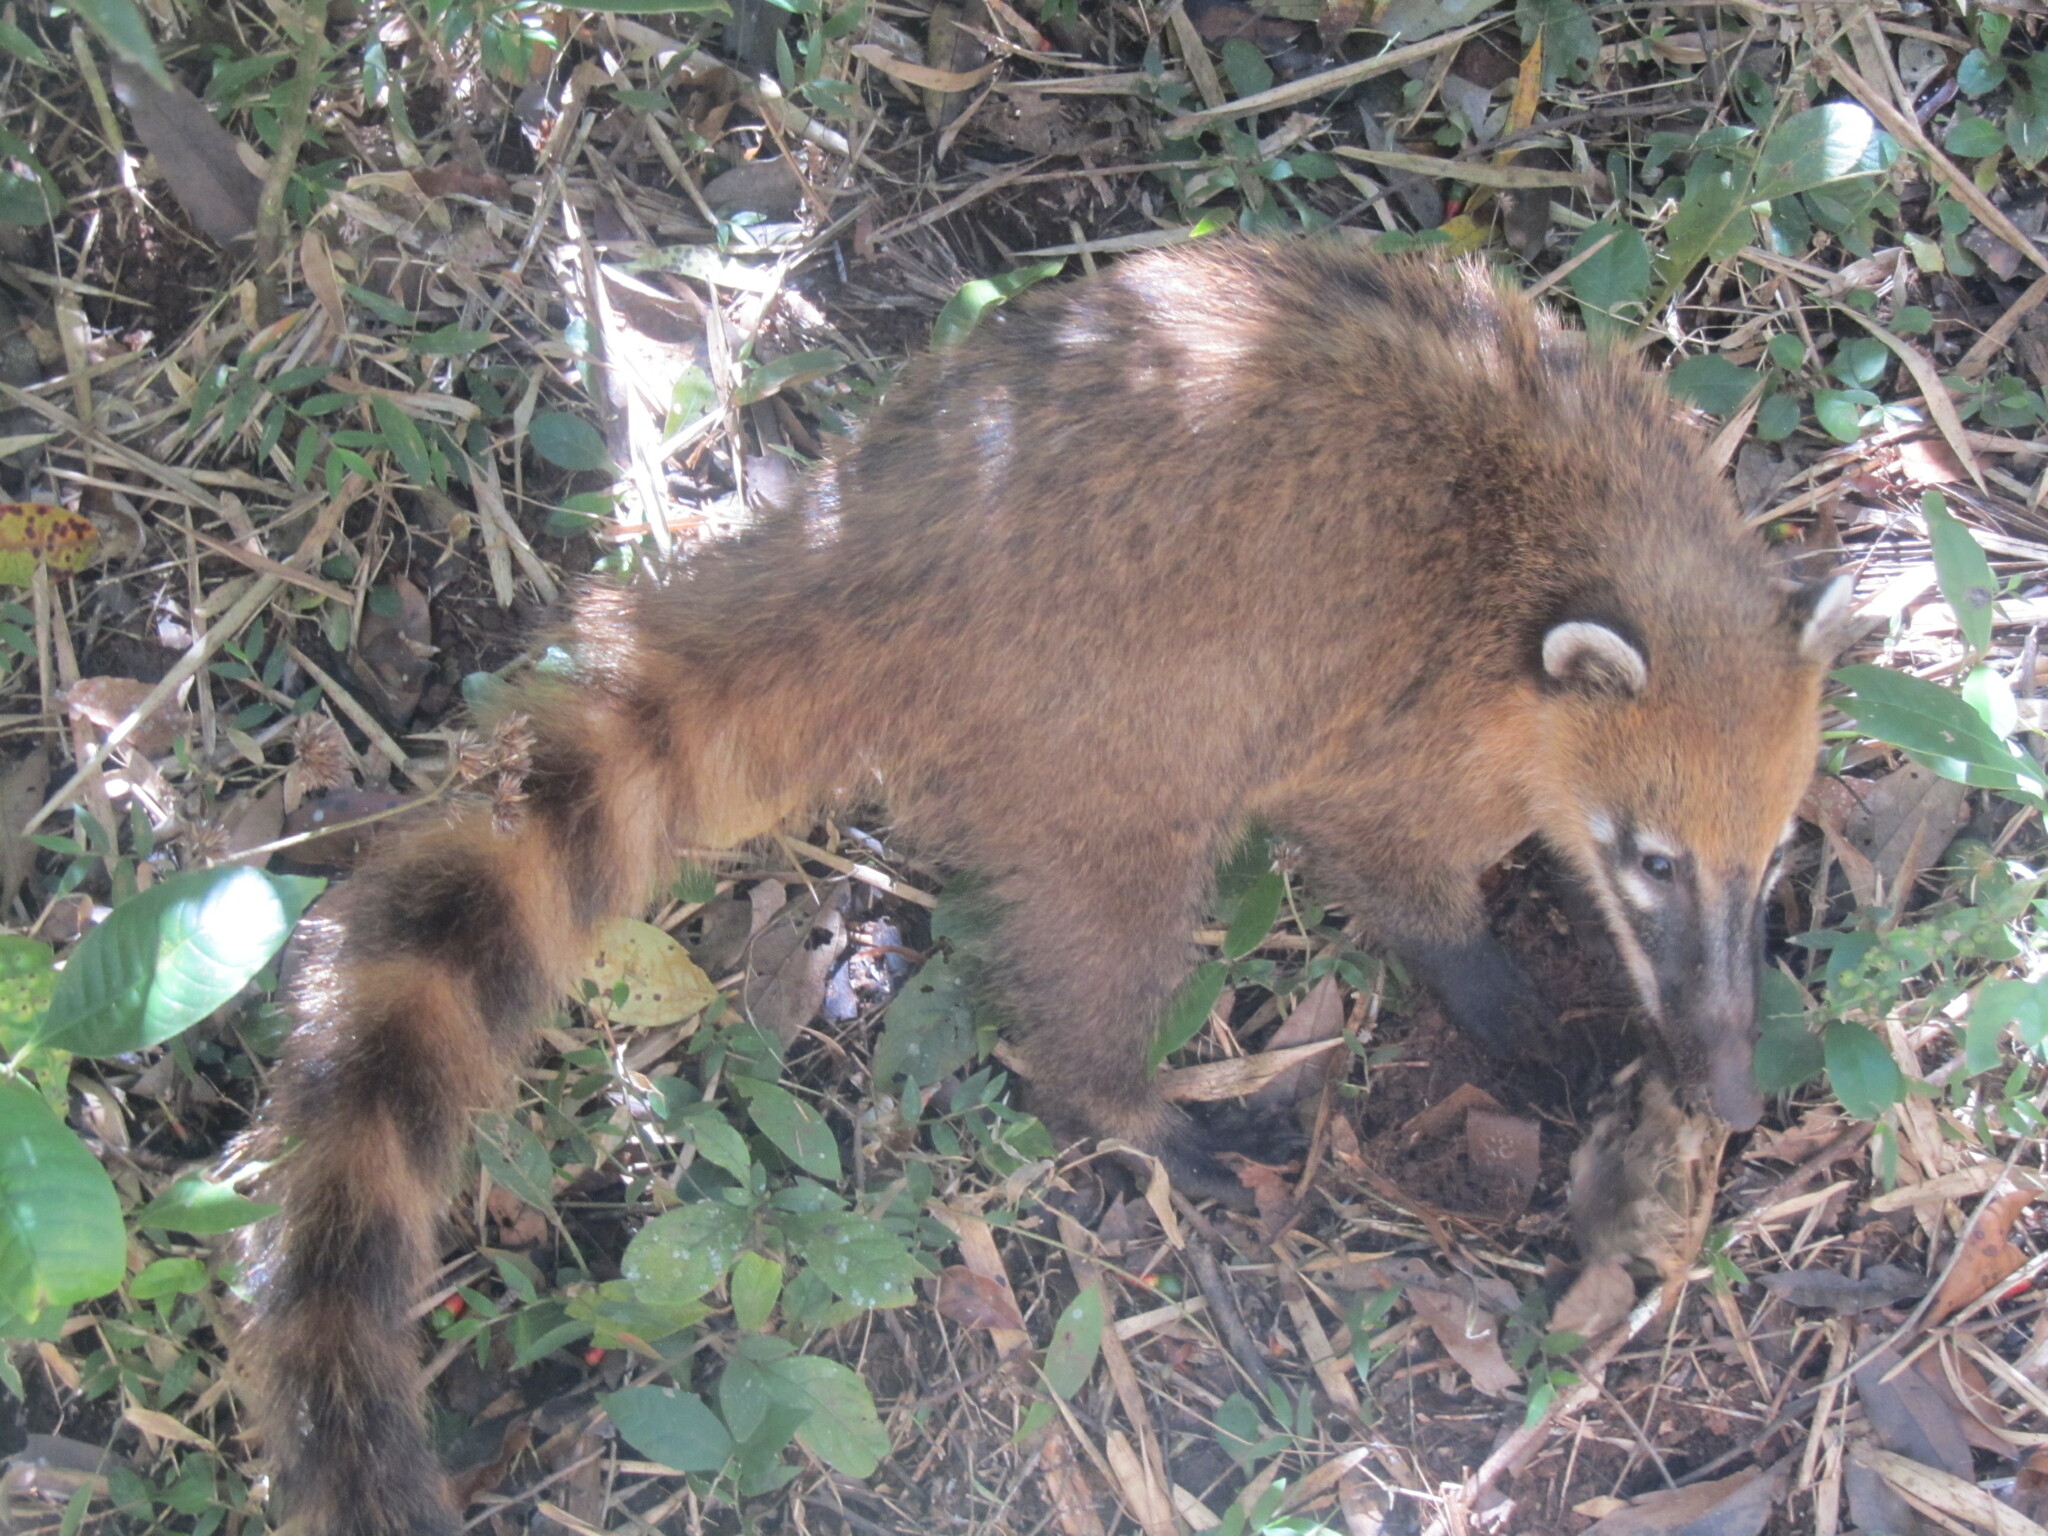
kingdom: Animalia
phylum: Chordata
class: Mammalia
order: Carnivora
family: Procyonidae
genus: Nasua
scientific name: Nasua nasua
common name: South american coati
